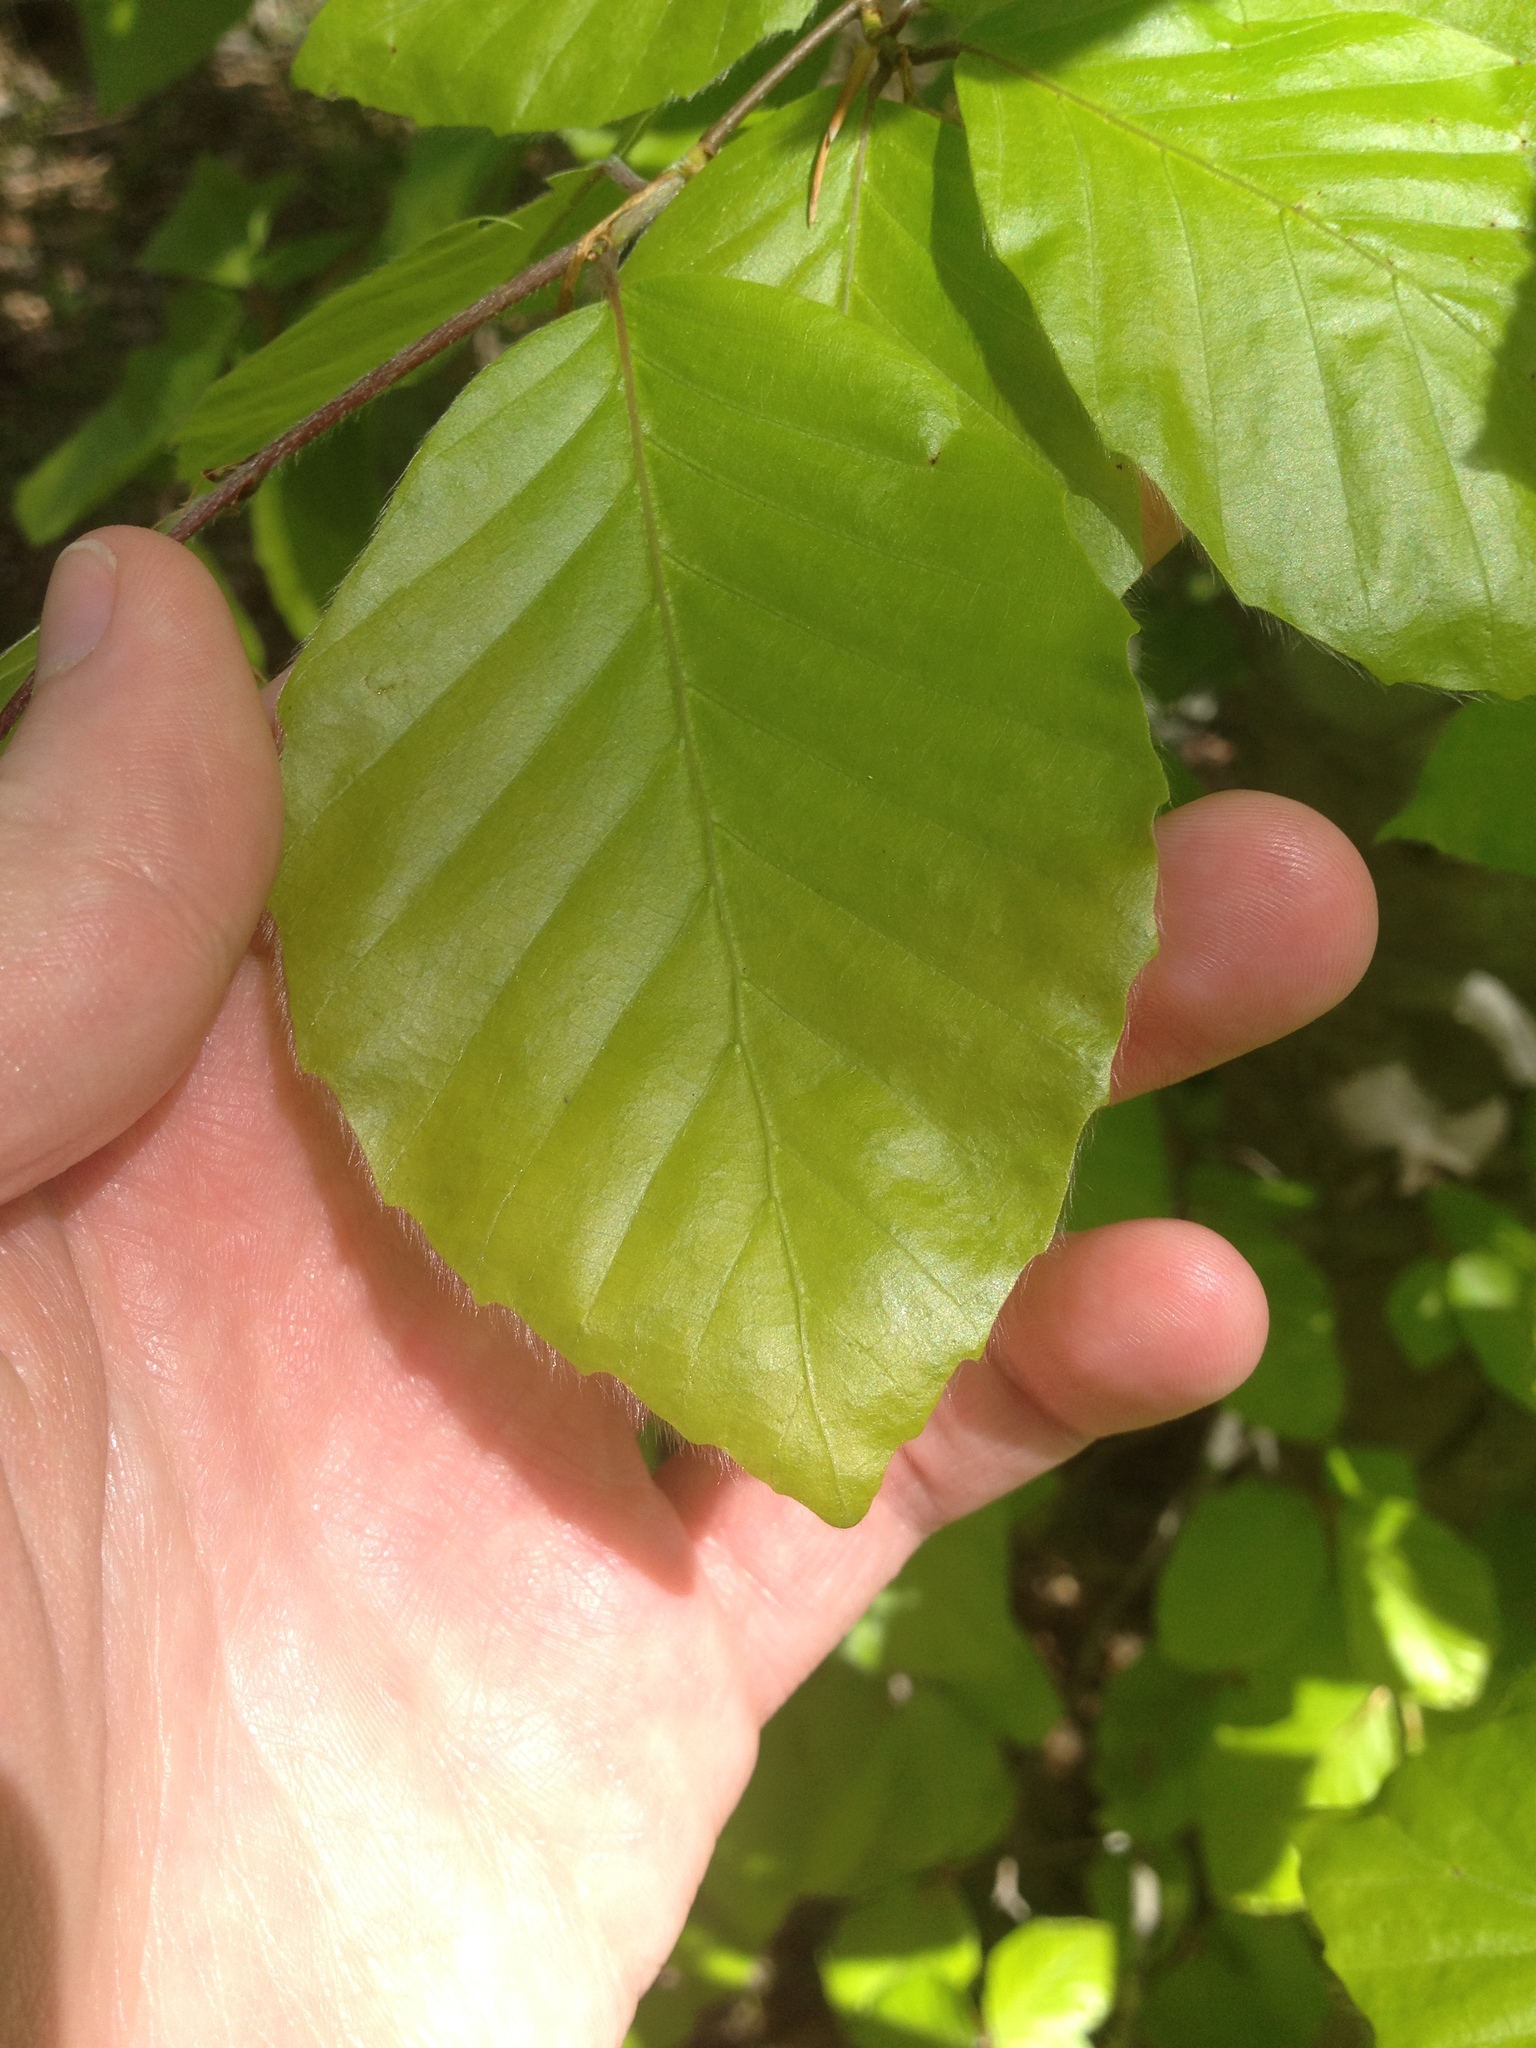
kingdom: Plantae
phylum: Tracheophyta
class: Magnoliopsida
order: Fagales
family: Fagaceae
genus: Fagus
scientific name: Fagus grandifolia
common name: American beech
